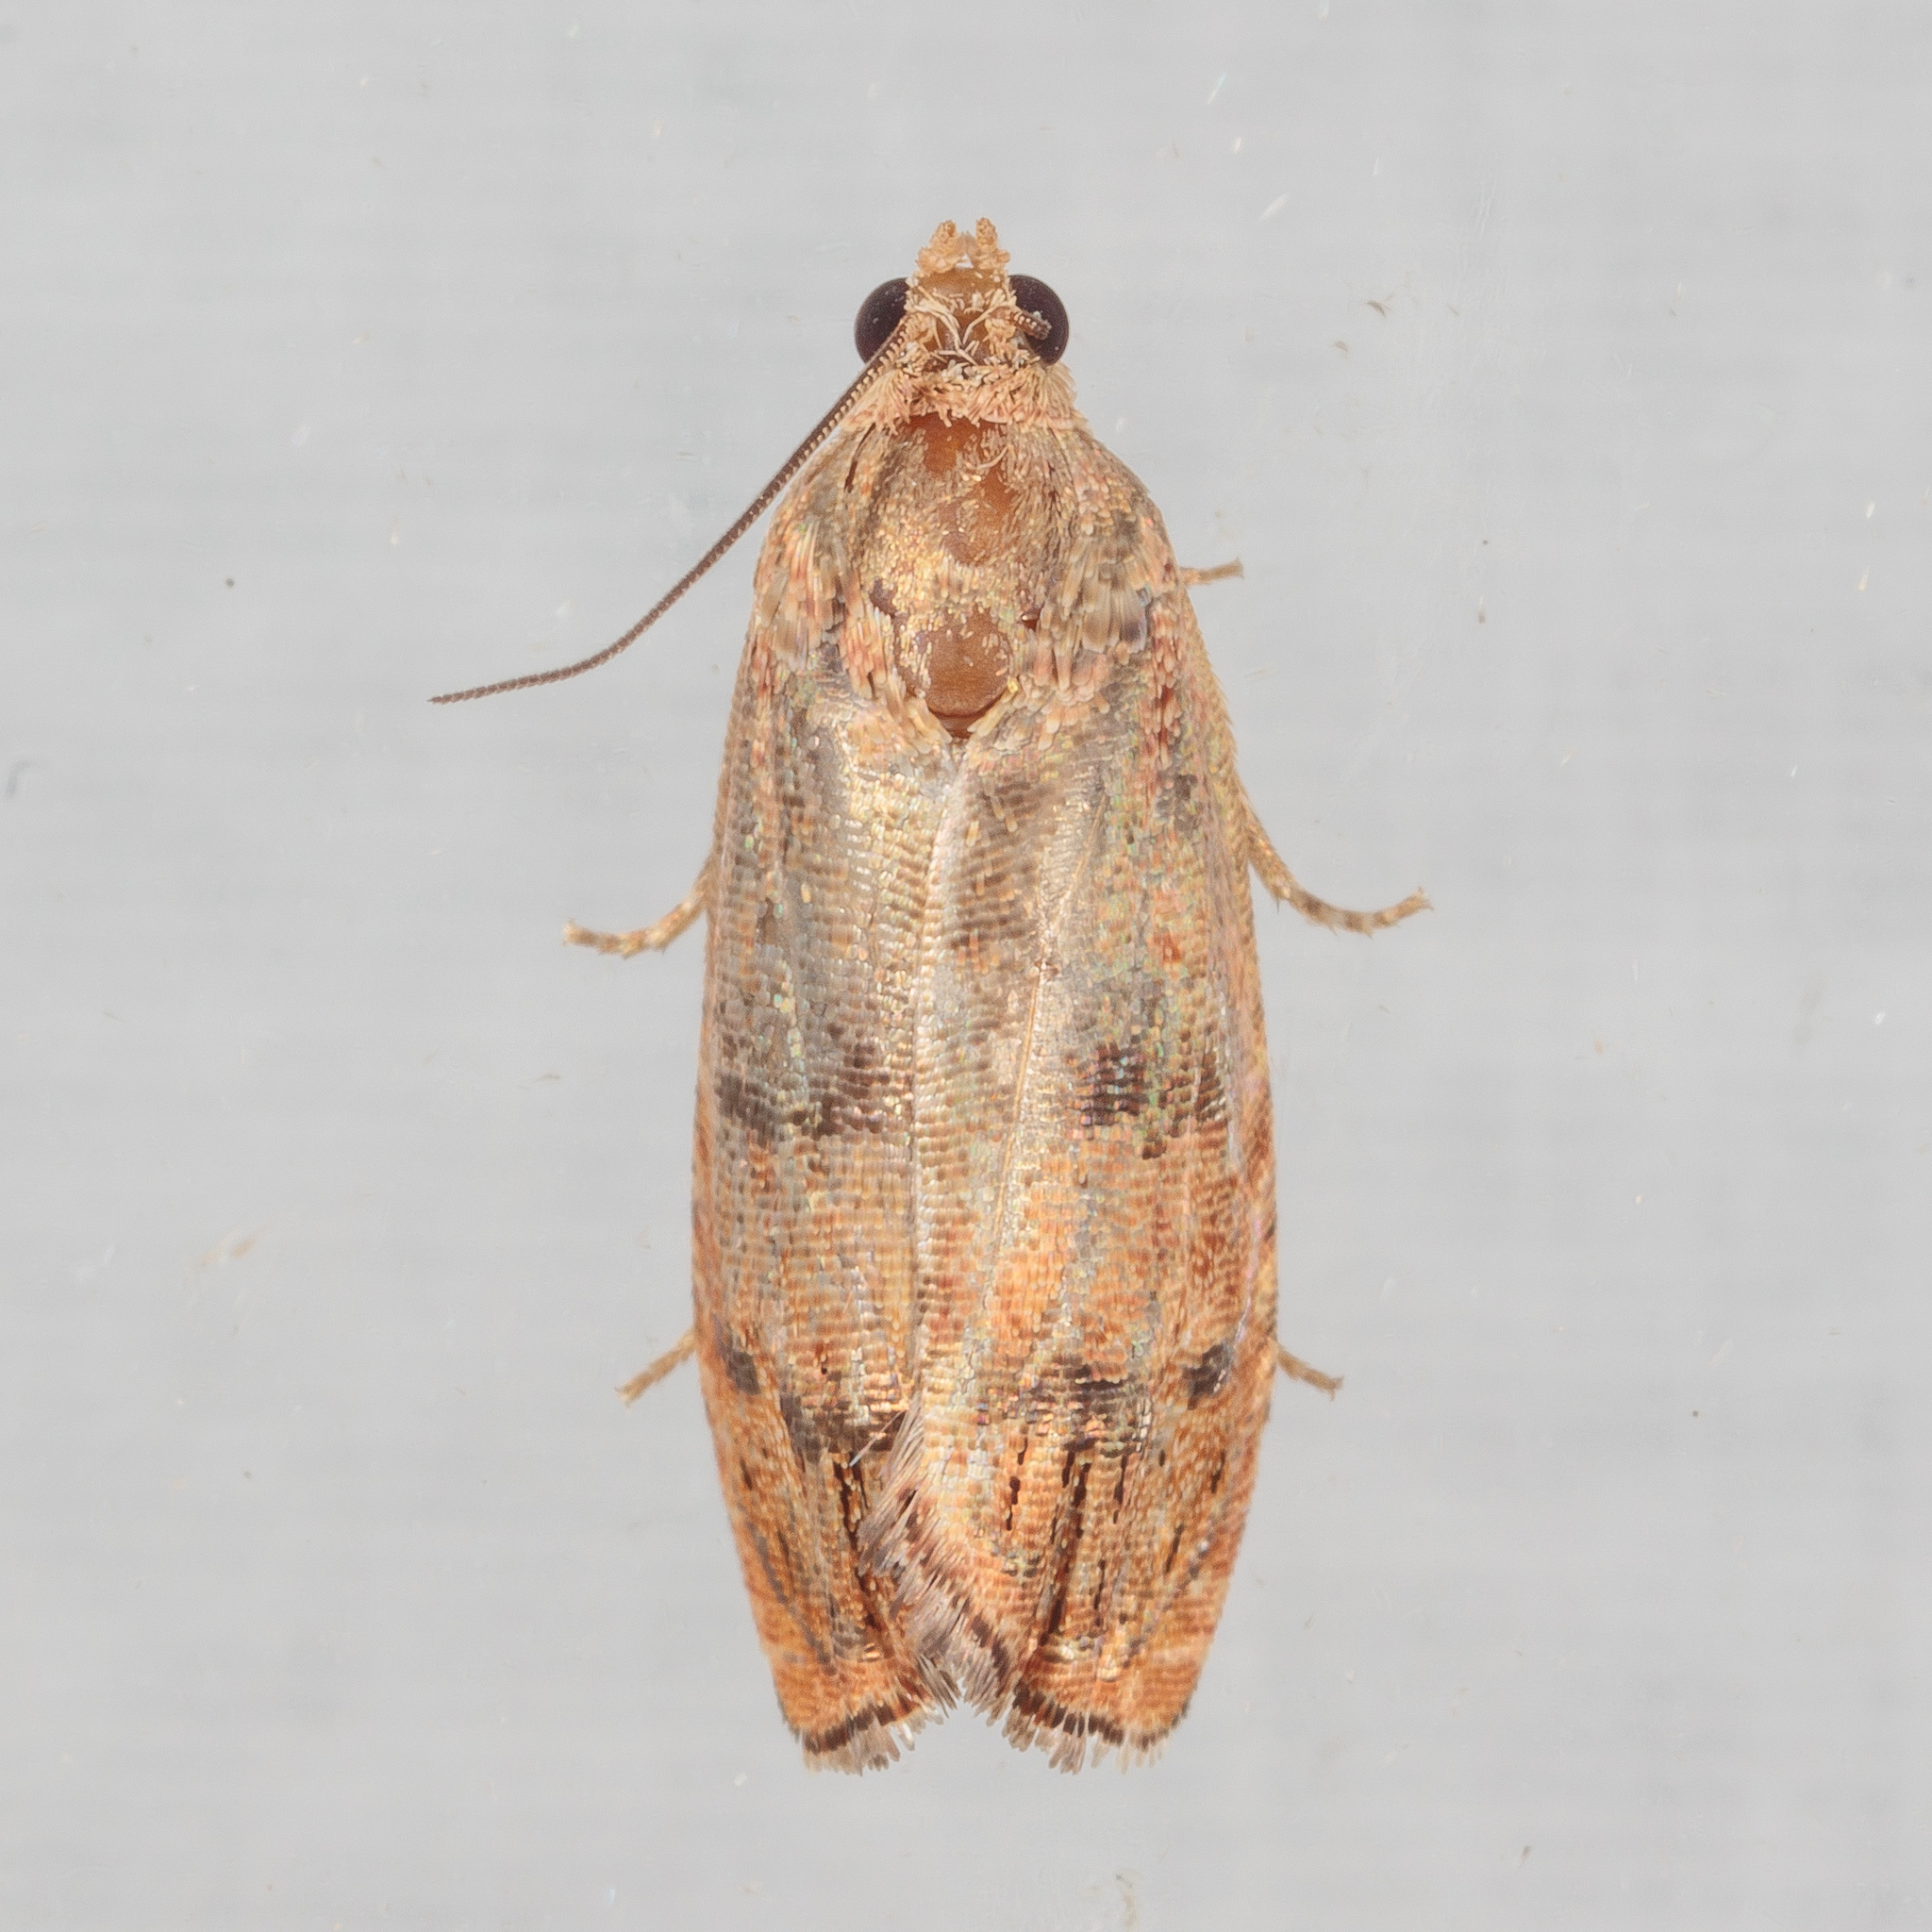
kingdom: Animalia
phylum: Arthropoda
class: Insecta
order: Lepidoptera
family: Tortricidae
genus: Cydia
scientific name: Cydia latiferreana
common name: Filbertworm moth
